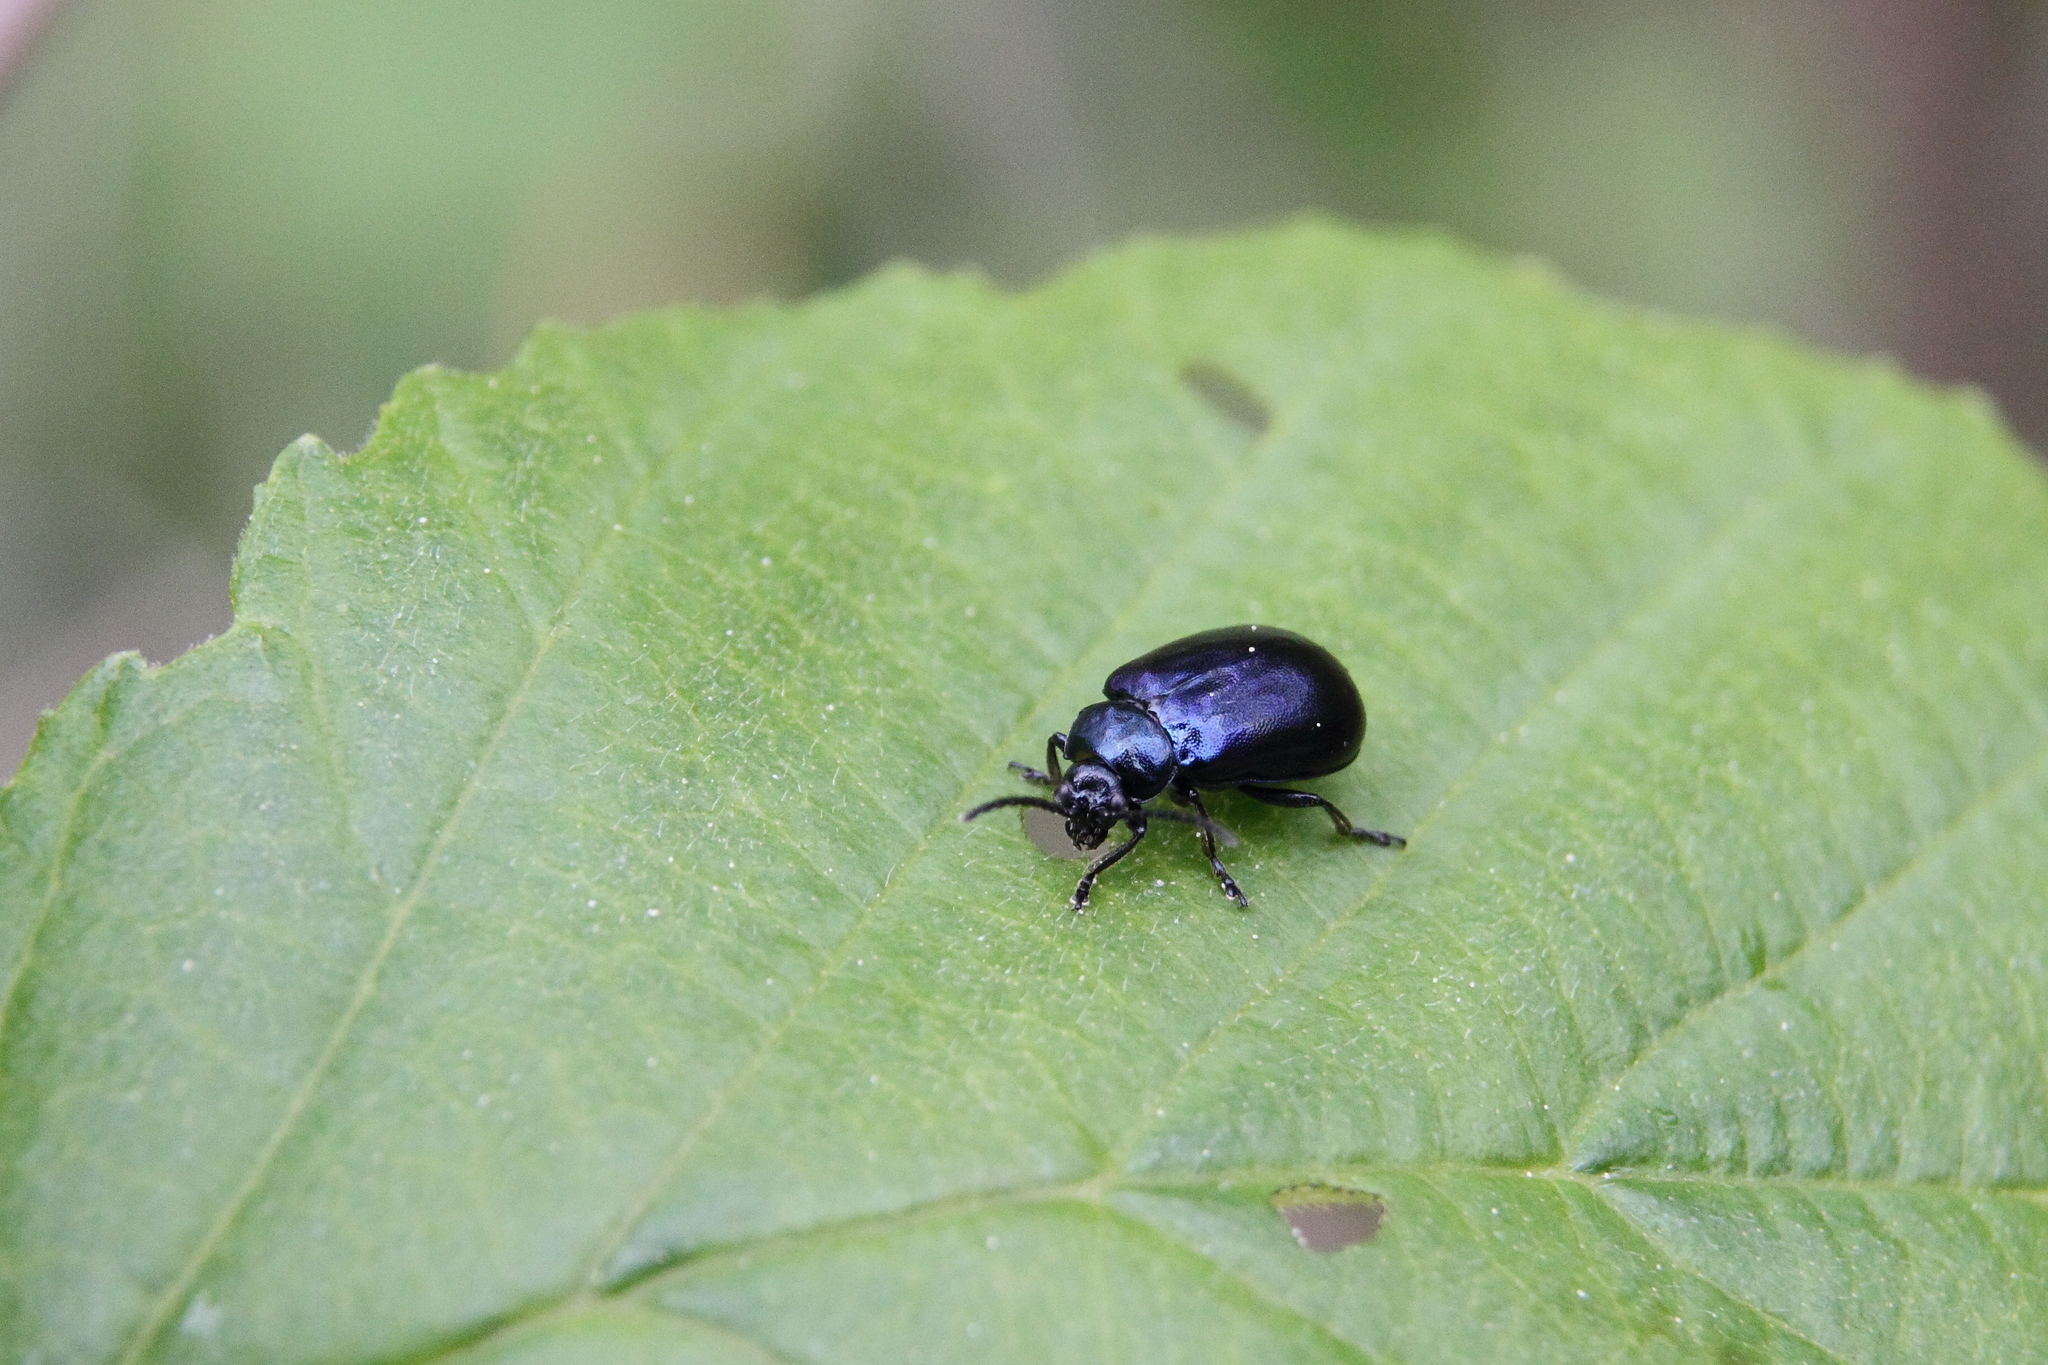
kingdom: Animalia
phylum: Arthropoda
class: Insecta
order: Coleoptera
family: Chrysomelidae
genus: Agelastica
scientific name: Agelastica alni
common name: Alder leaf beetle
